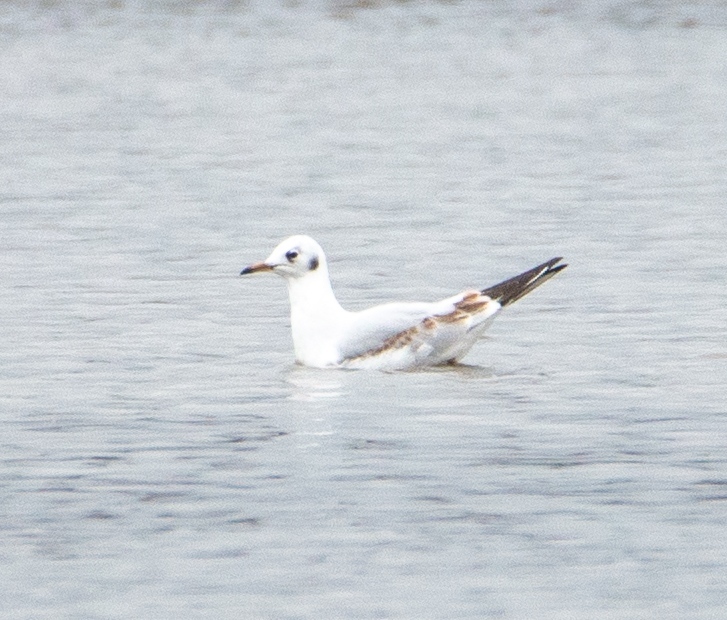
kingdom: Animalia
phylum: Chordata
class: Aves
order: Charadriiformes
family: Laridae
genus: Chroicocephalus
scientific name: Chroicocephalus ridibundus
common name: Black-headed gull
